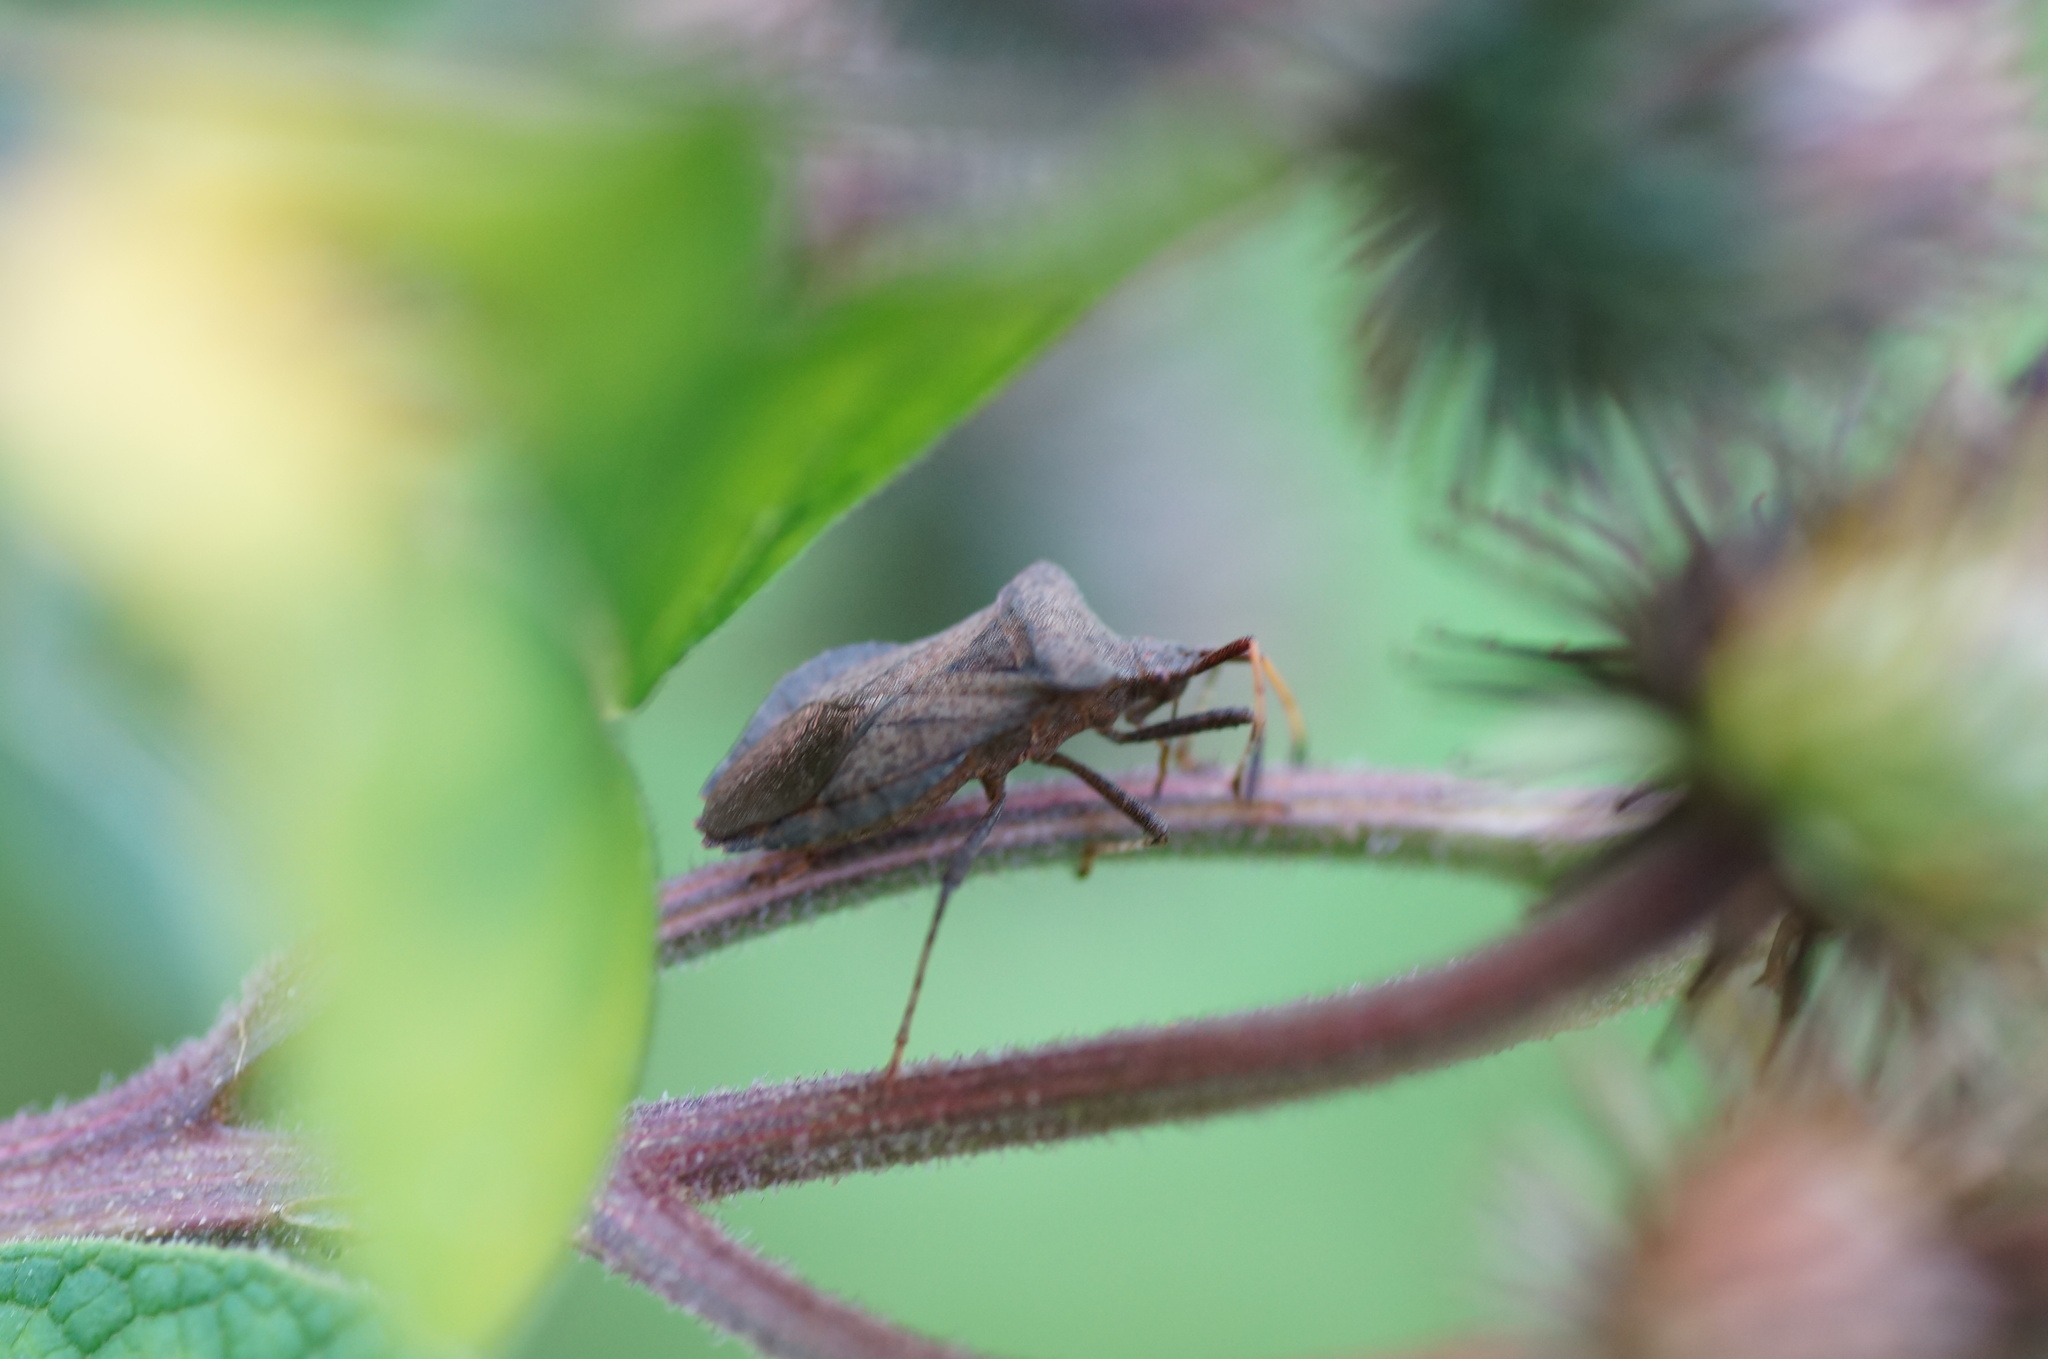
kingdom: Animalia
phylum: Arthropoda
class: Insecta
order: Hemiptera
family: Coreidae
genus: Coreus
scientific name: Coreus marginatus
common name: Dock bug
